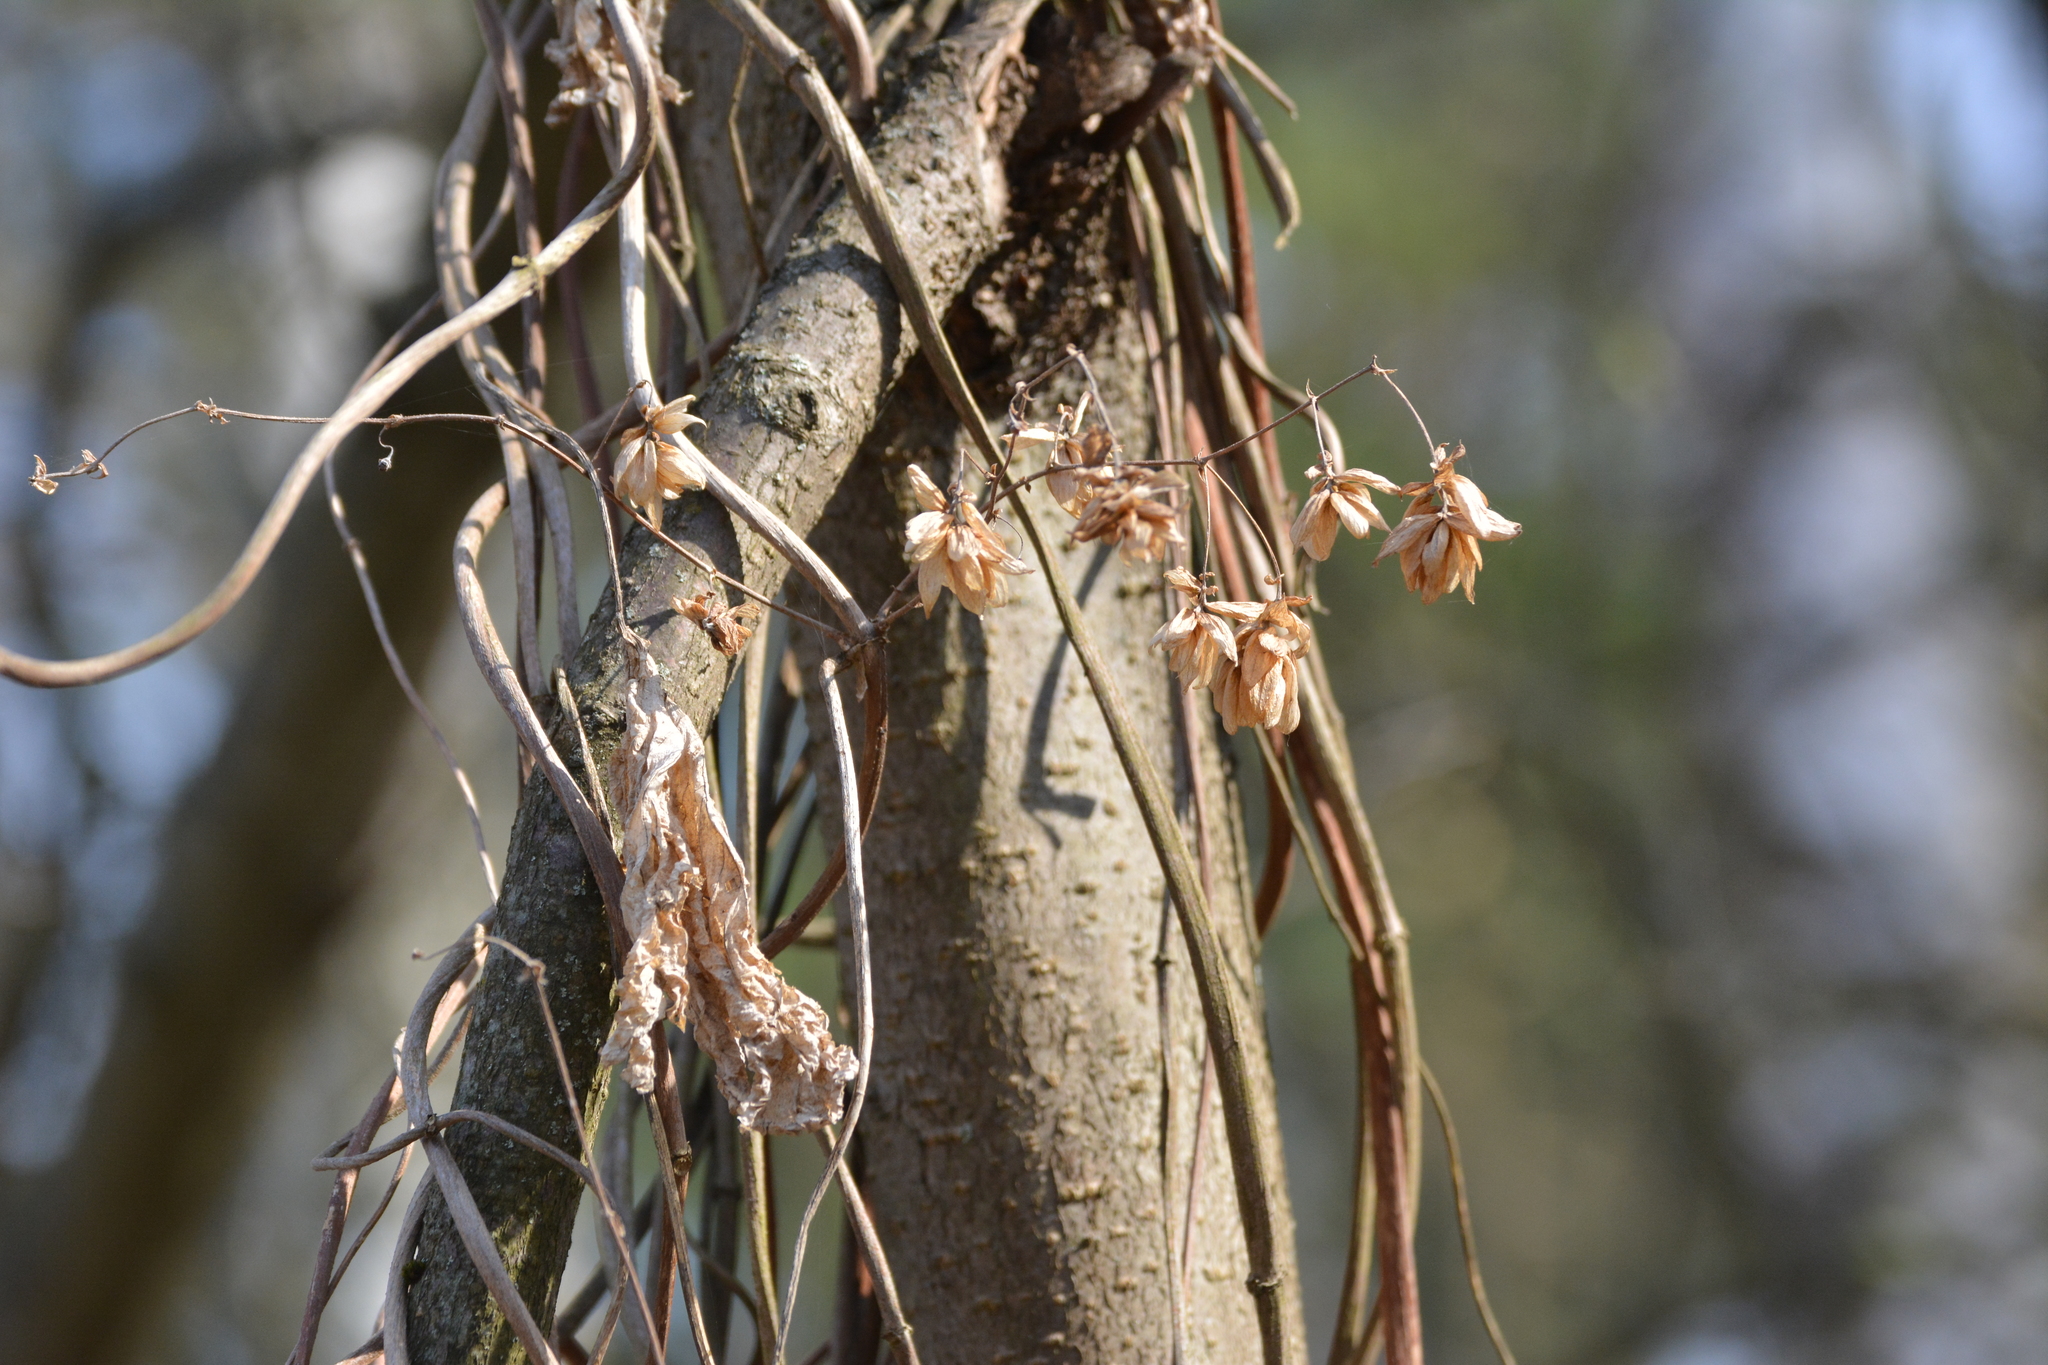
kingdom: Plantae
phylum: Tracheophyta
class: Magnoliopsida
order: Rosales
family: Cannabaceae
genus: Humulus
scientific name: Humulus lupulus
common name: Hop
